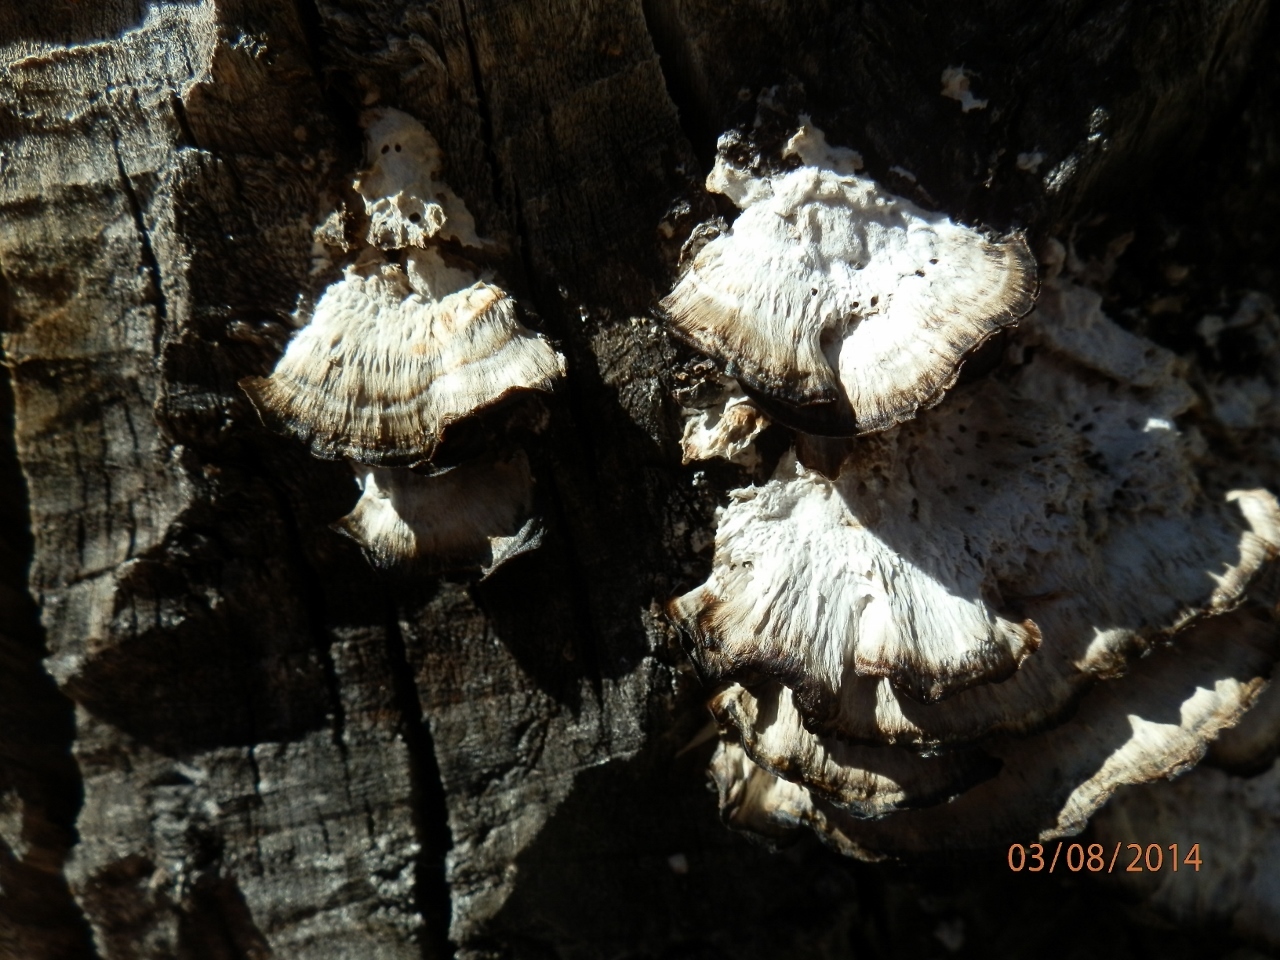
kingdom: Fungi
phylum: Basidiomycota
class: Agaricomycetes
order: Polyporales
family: Phanerochaetaceae
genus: Bjerkandera
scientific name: Bjerkandera adusta
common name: Smoky bracket
